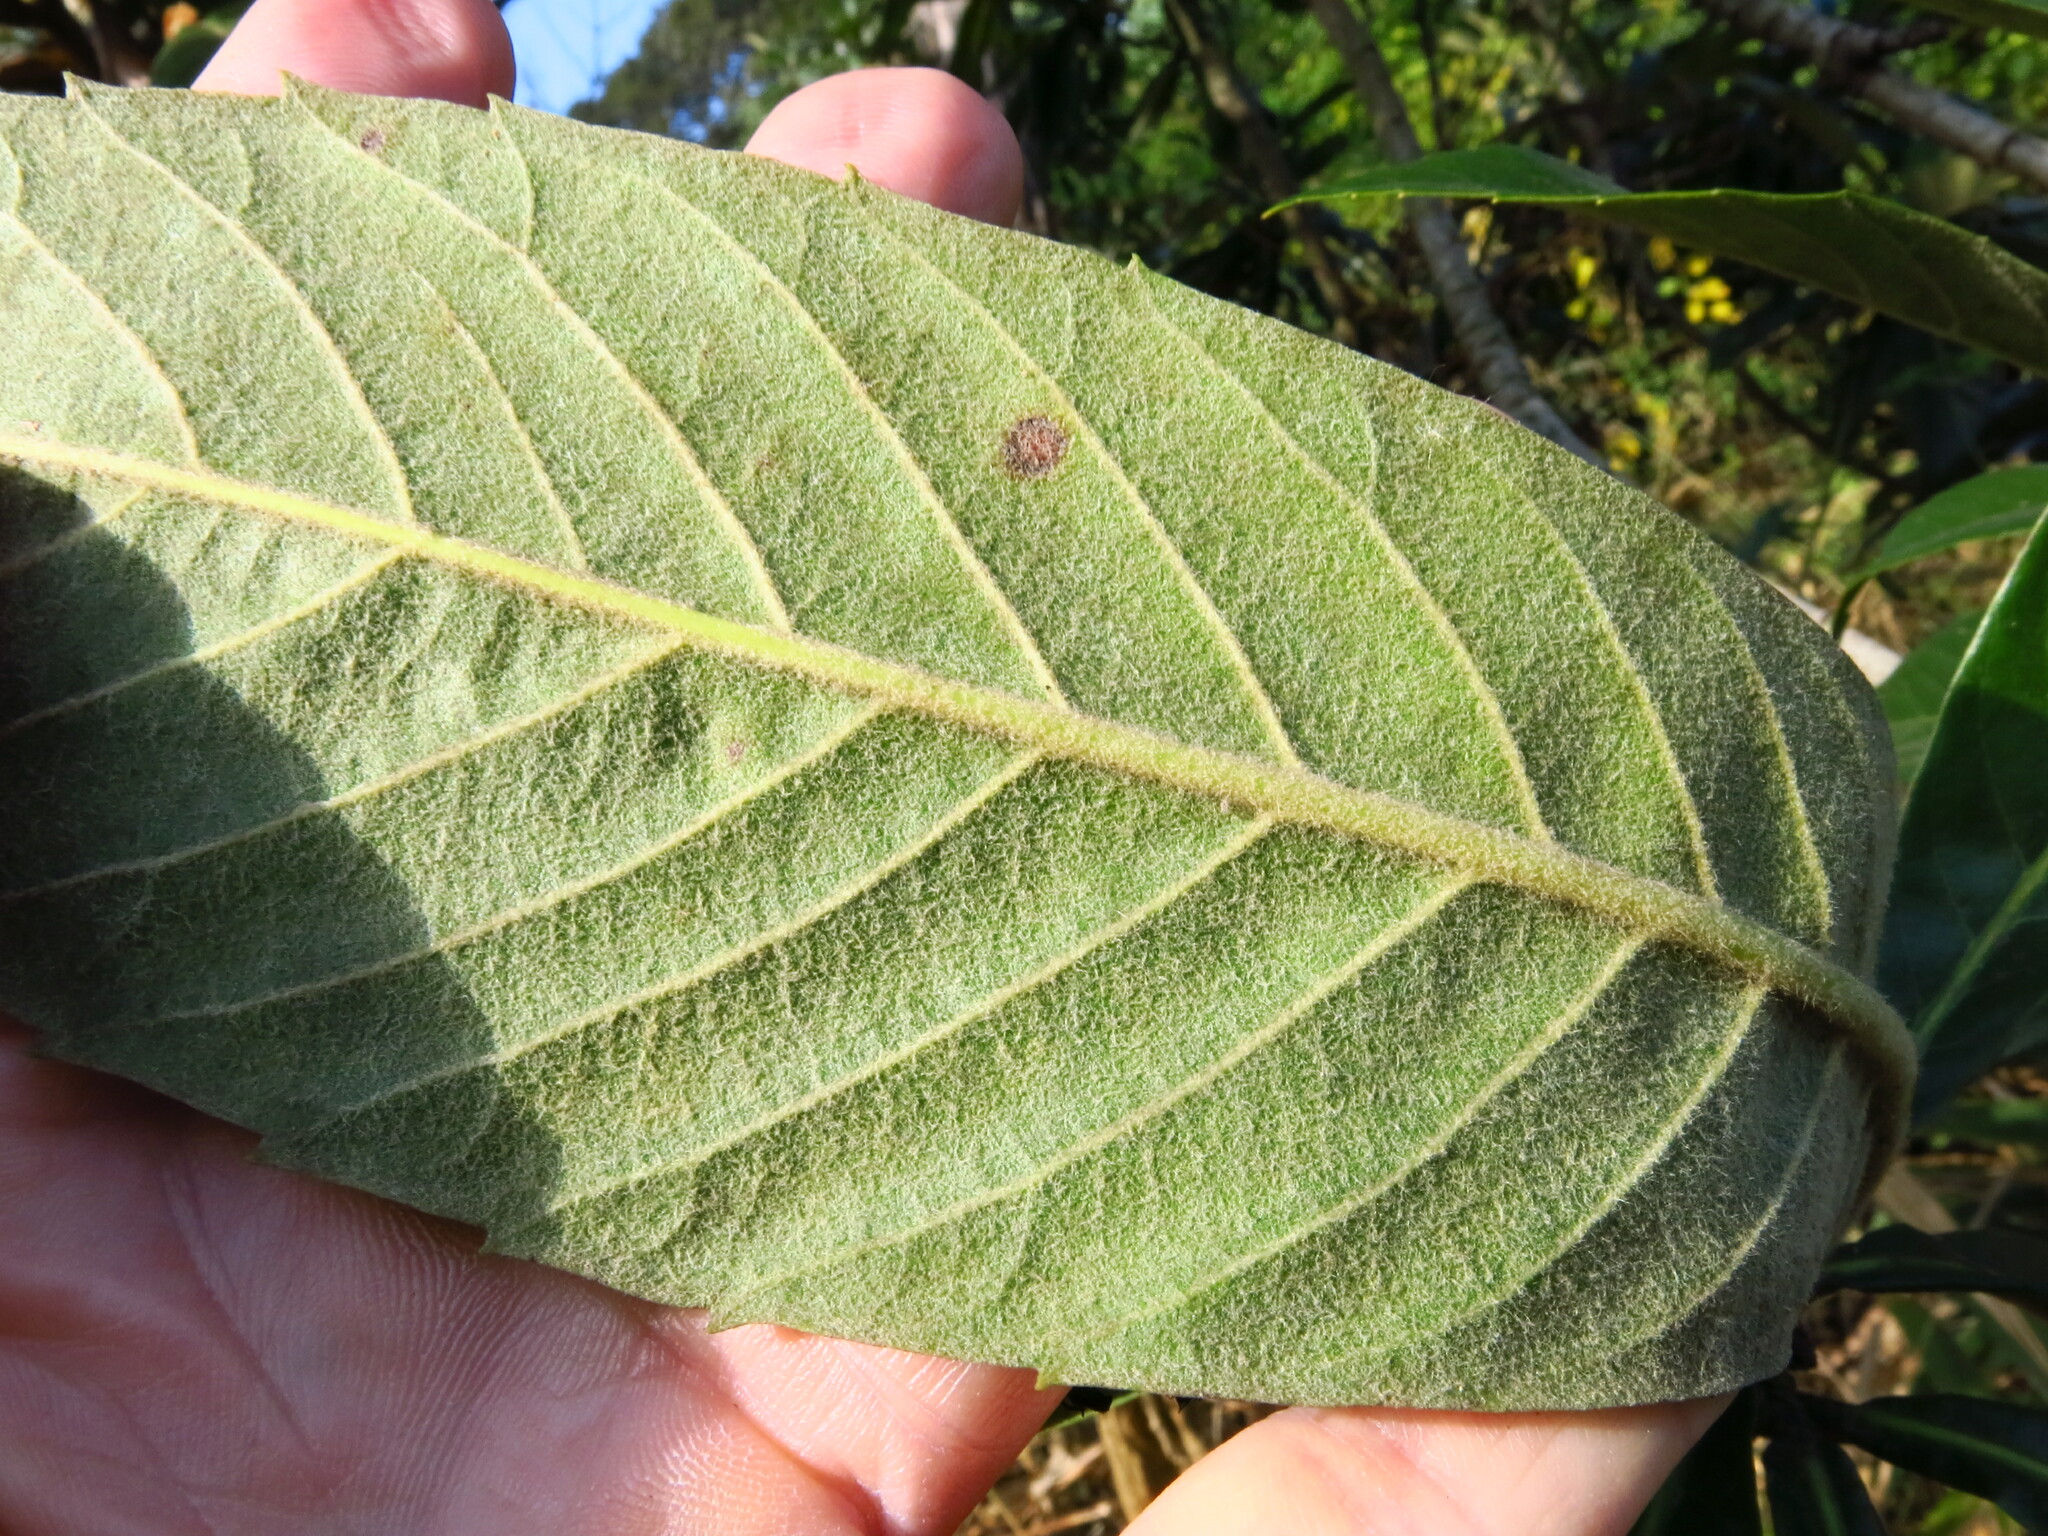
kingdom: Plantae
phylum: Tracheophyta
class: Magnoliopsida
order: Rosales
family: Rosaceae
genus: Rhaphiolepis
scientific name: Rhaphiolepis bibas
